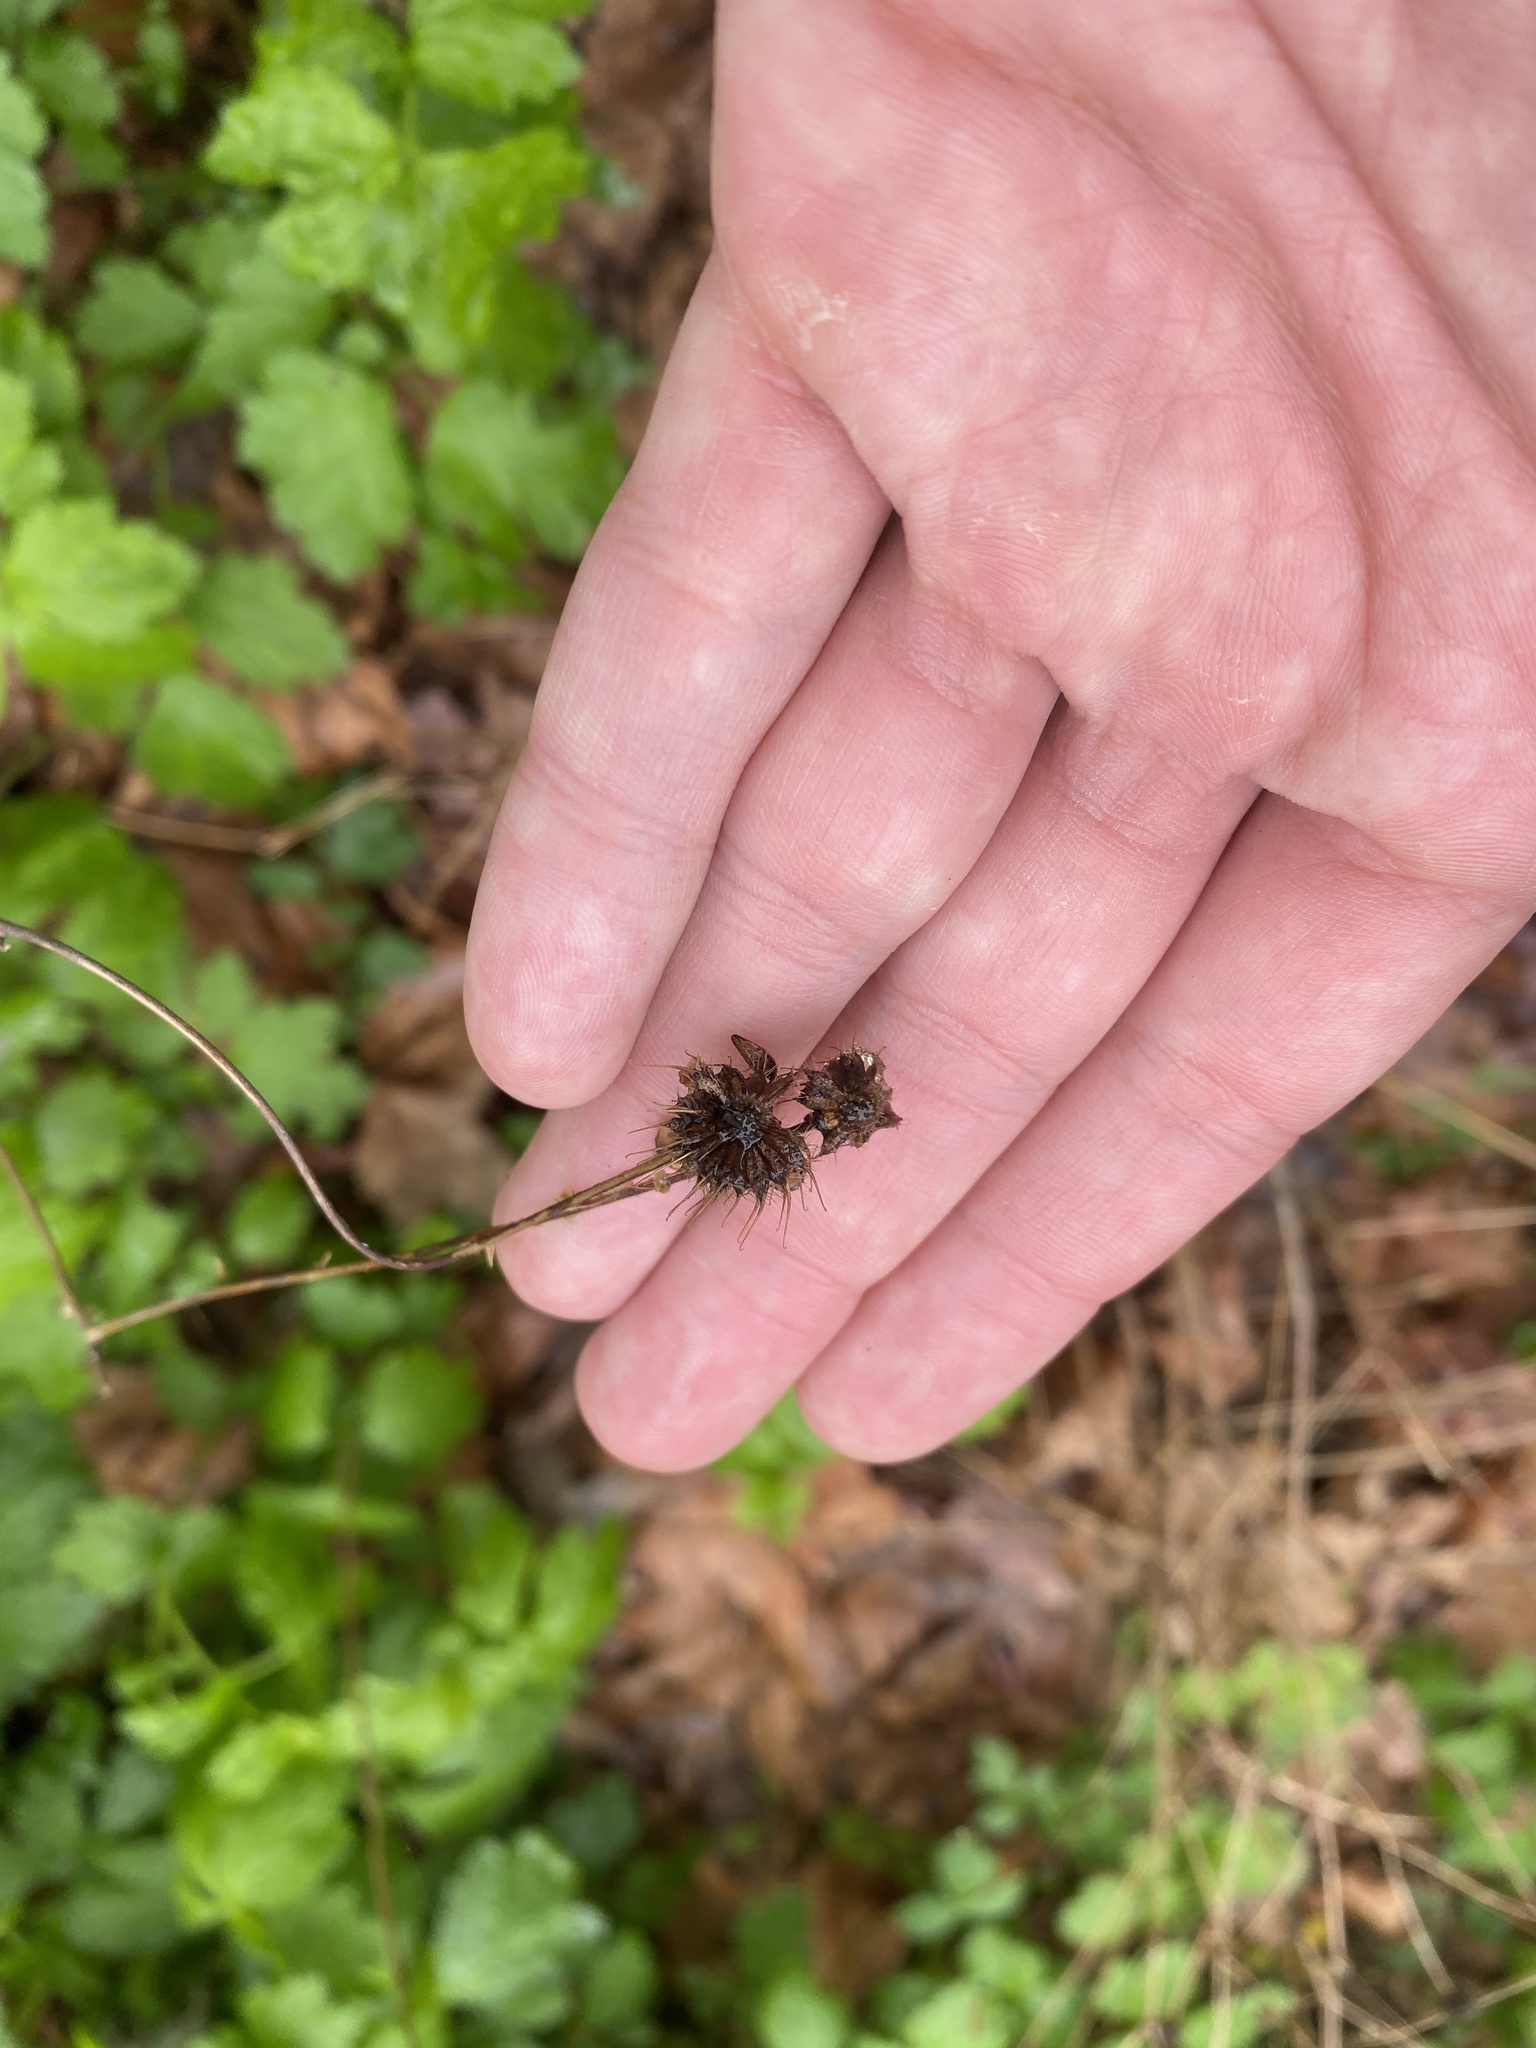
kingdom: Plantae
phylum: Tracheophyta
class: Magnoliopsida
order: Rosales
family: Rosaceae
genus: Geum
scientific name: Geum urbanum
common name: Wood avens
